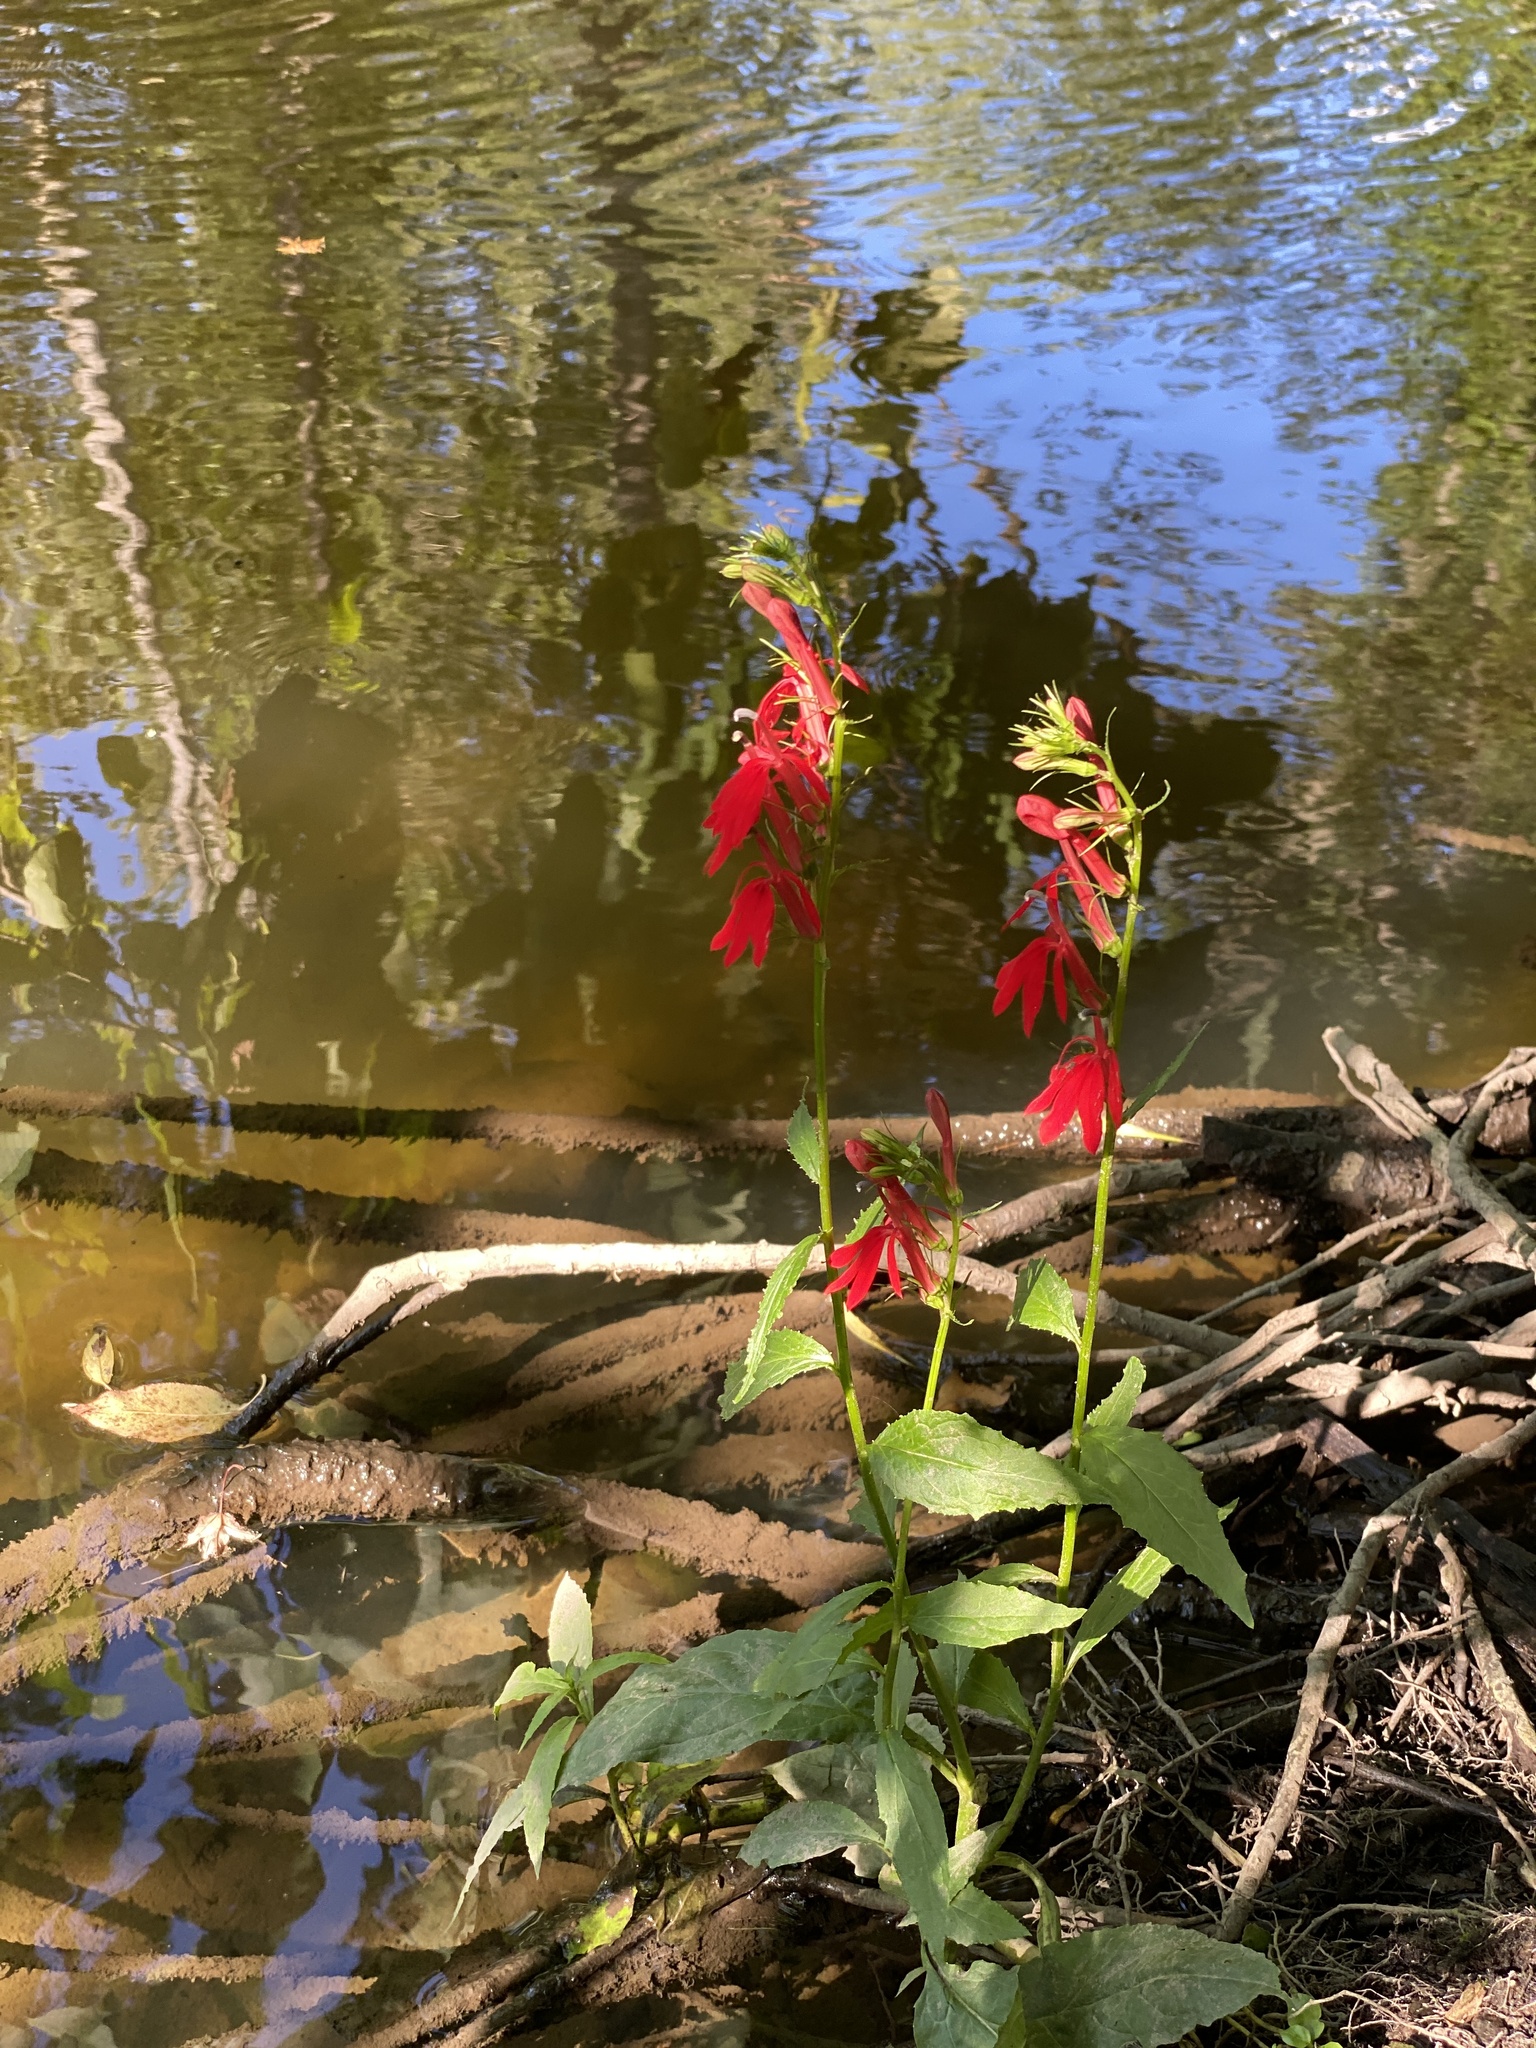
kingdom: Plantae
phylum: Tracheophyta
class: Magnoliopsida
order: Asterales
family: Campanulaceae
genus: Lobelia
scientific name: Lobelia cardinalis
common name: Cardinal flower
